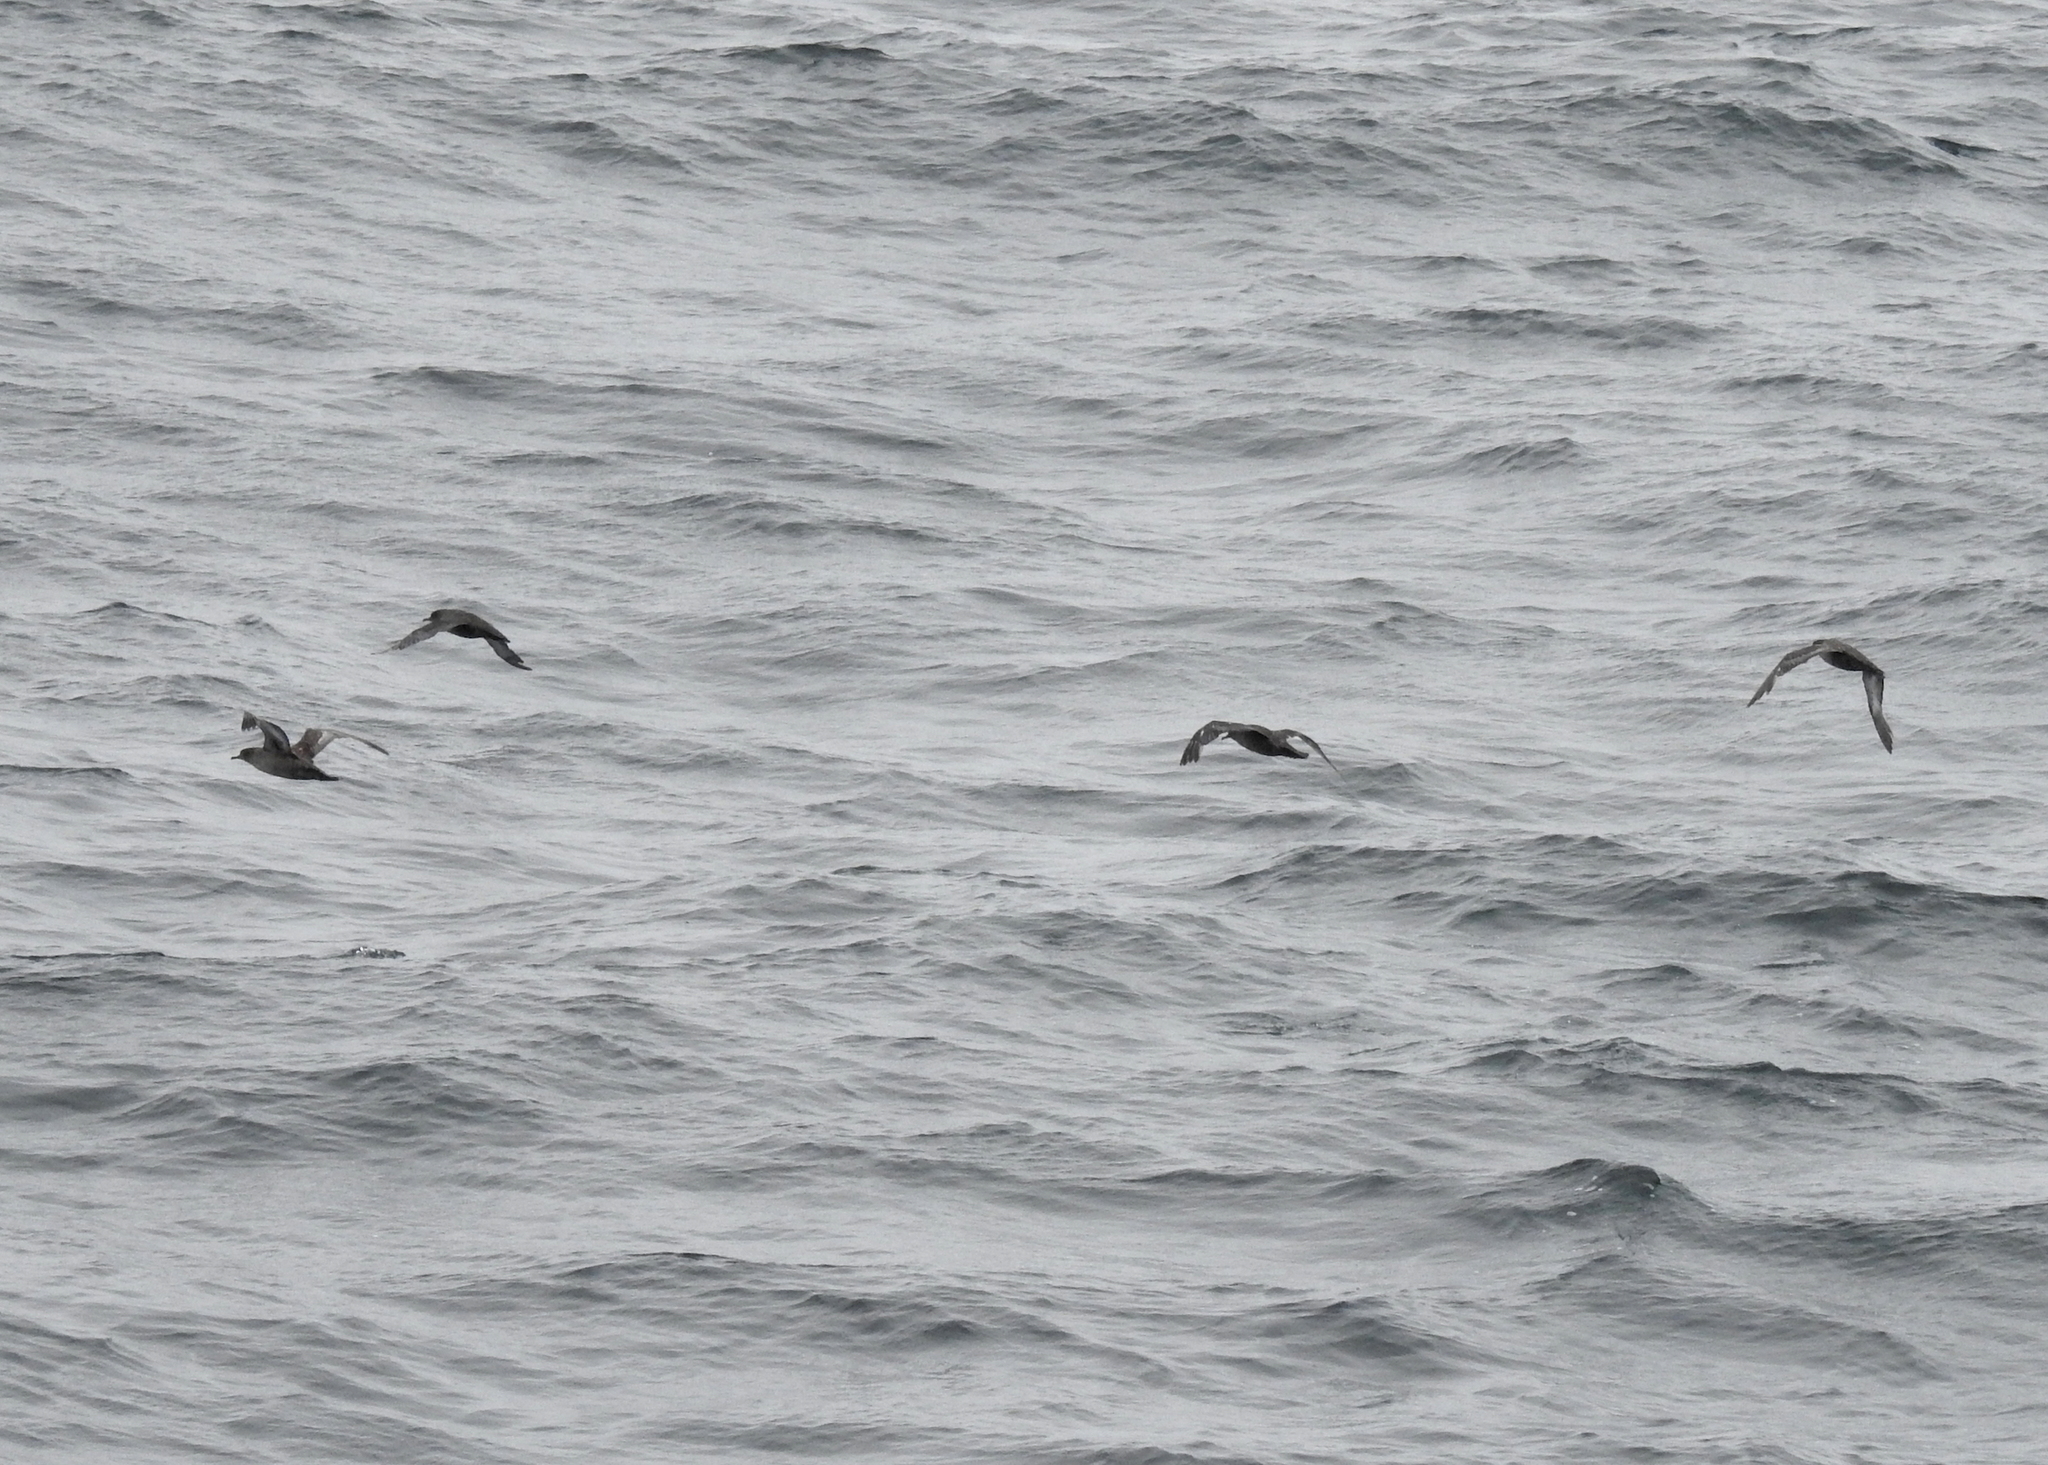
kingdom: Animalia
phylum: Chordata
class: Aves
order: Procellariiformes
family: Procellariidae
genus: Puffinus
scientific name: Puffinus griseus
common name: Sooty shearwater
